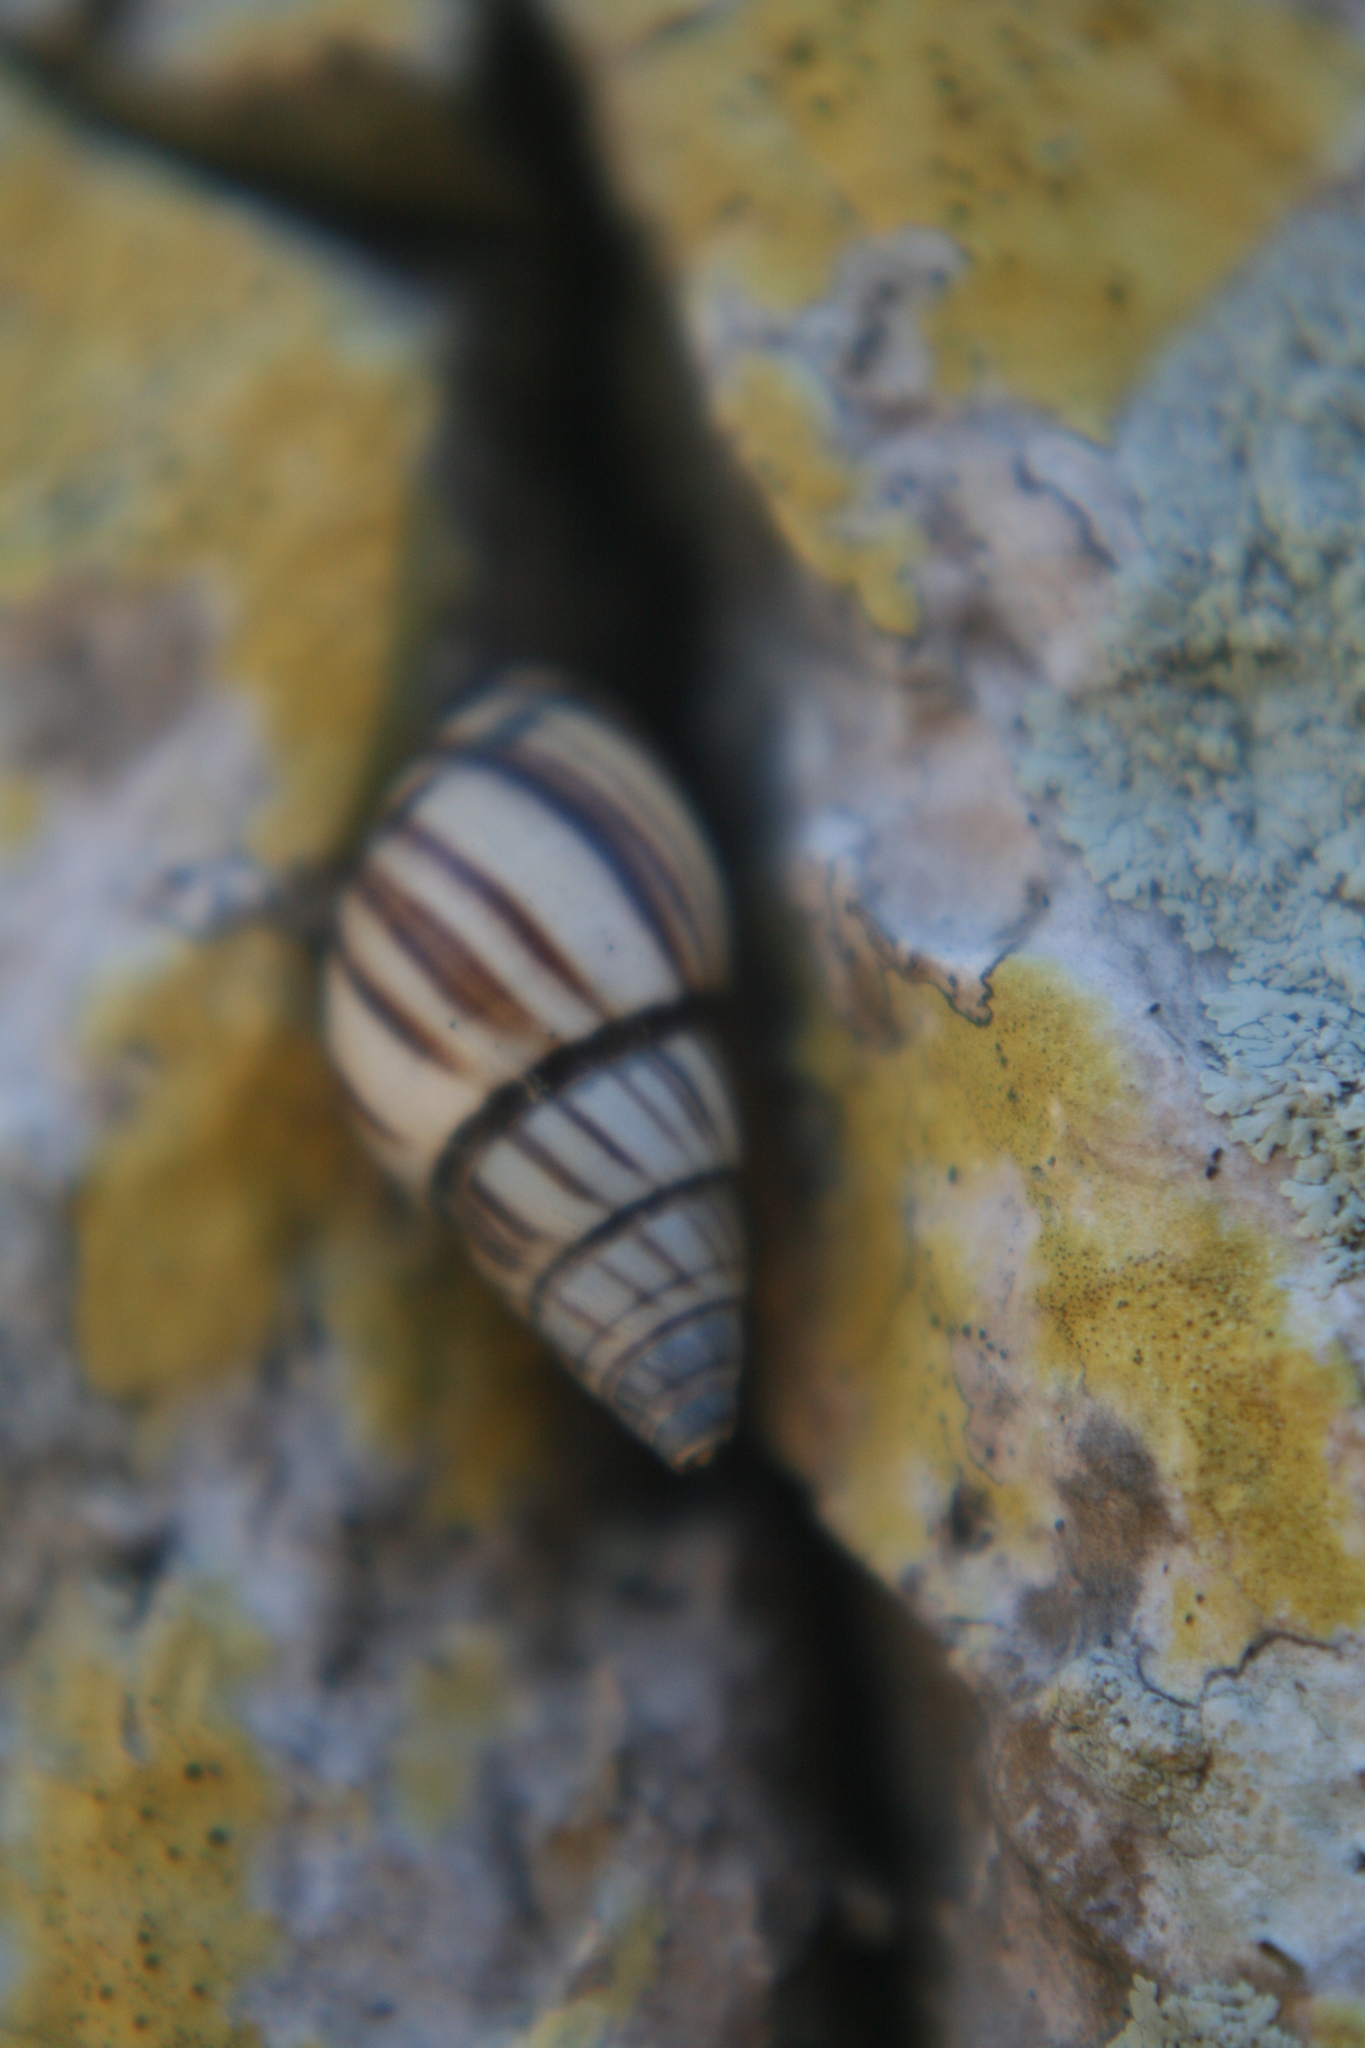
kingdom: Animalia
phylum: Mollusca
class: Gastropoda
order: Stylommatophora
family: Bulimulidae
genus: Drymaeus
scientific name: Drymaeus
